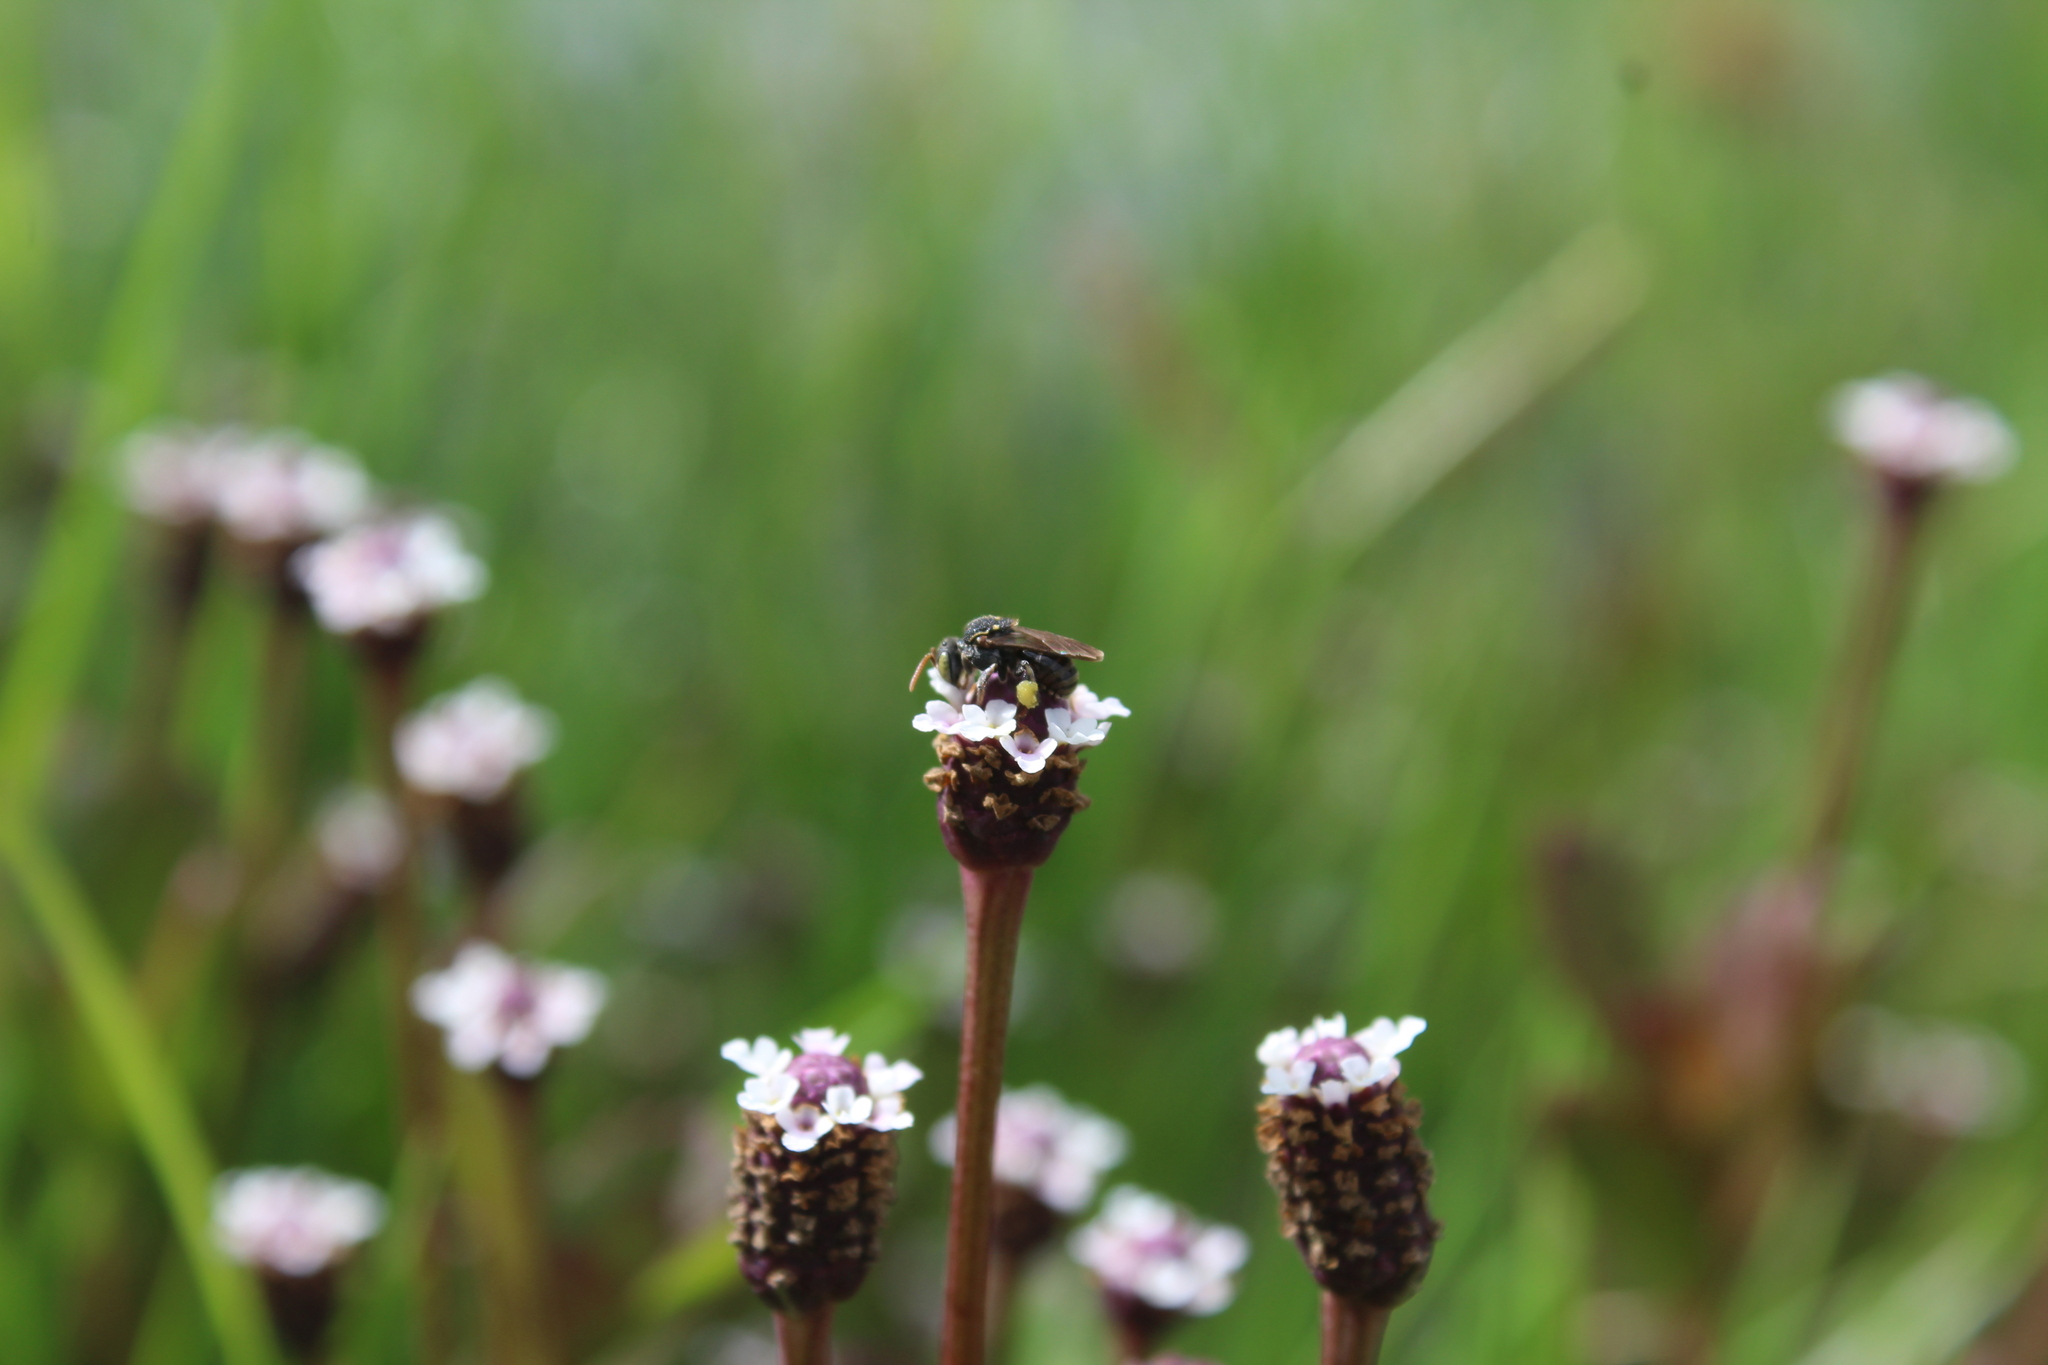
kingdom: Animalia
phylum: Arthropoda
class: Insecta
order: Hymenoptera
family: Apidae
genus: Nannotrigona
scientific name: Nannotrigona perilampoides
